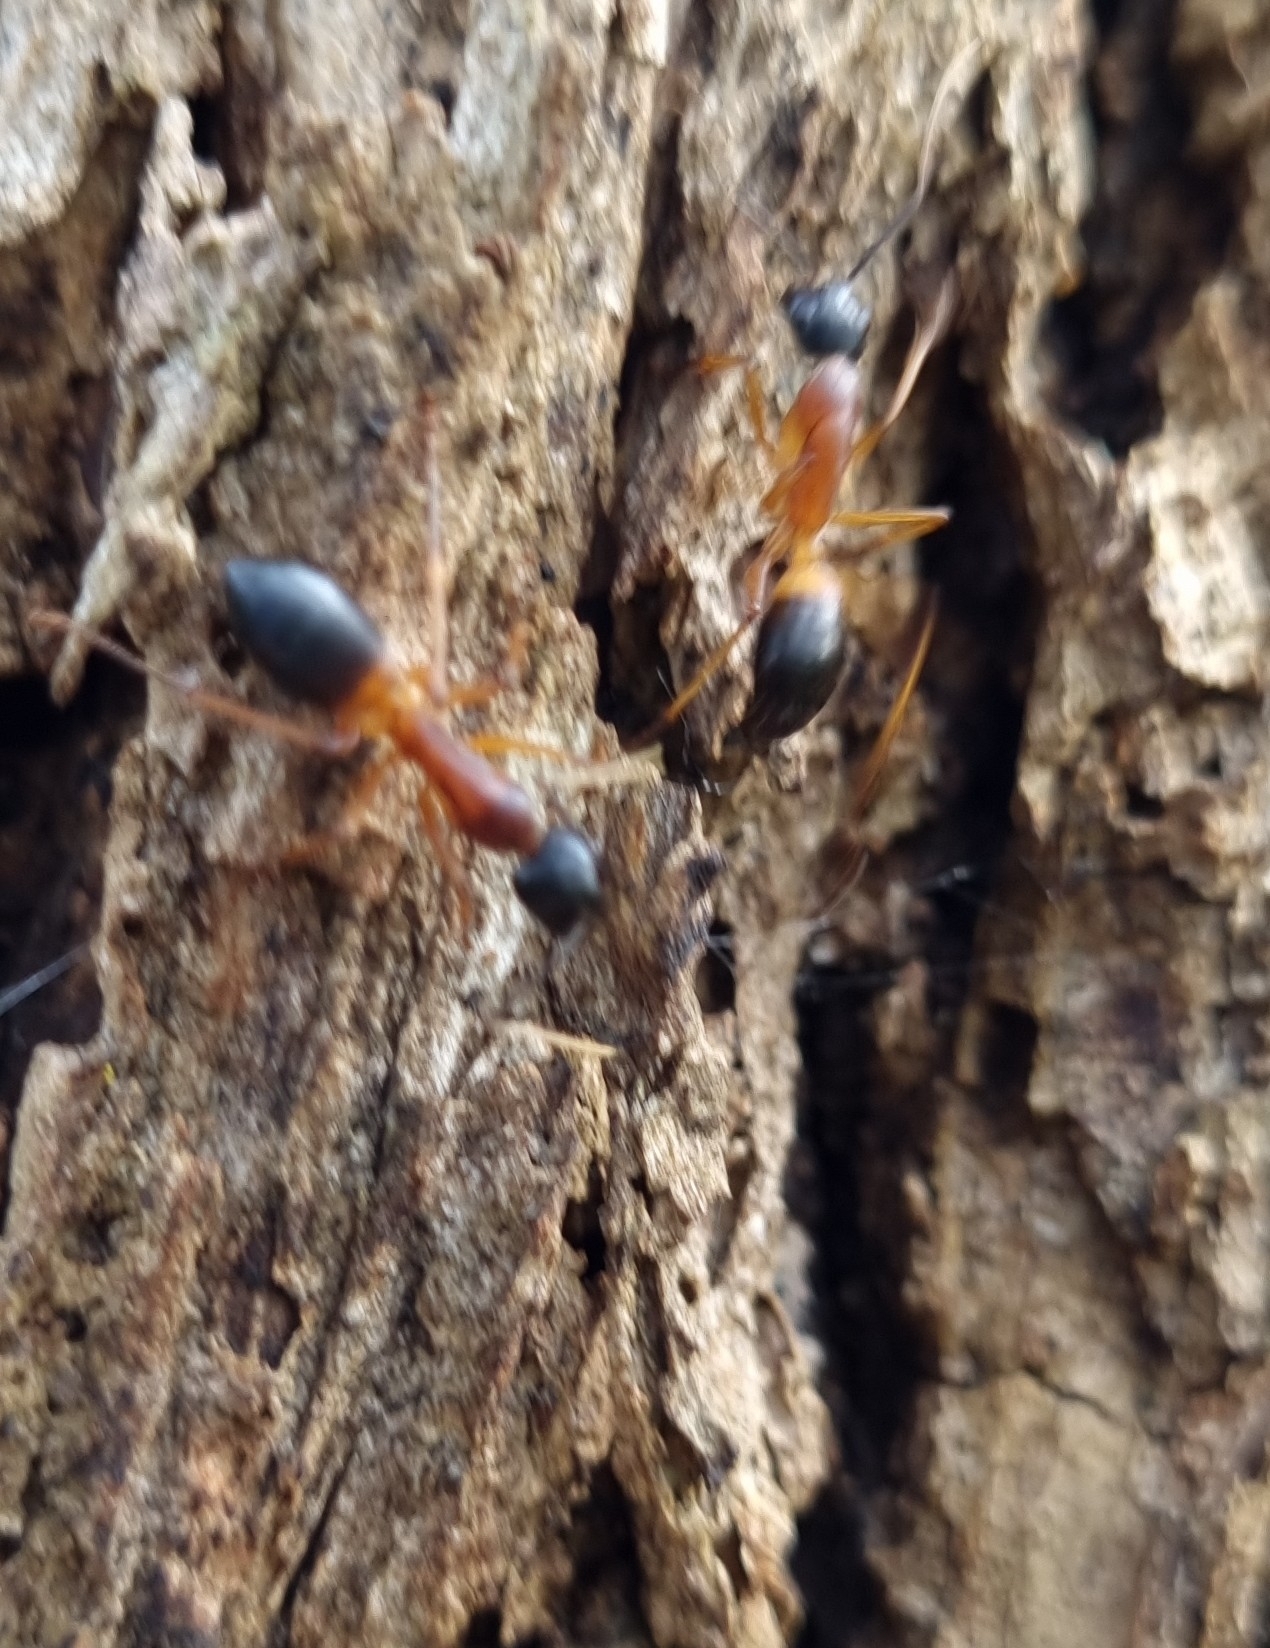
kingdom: Animalia
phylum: Arthropoda
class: Insecta
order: Hymenoptera
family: Formicidae
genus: Camponotus
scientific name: Camponotus consobrinus
